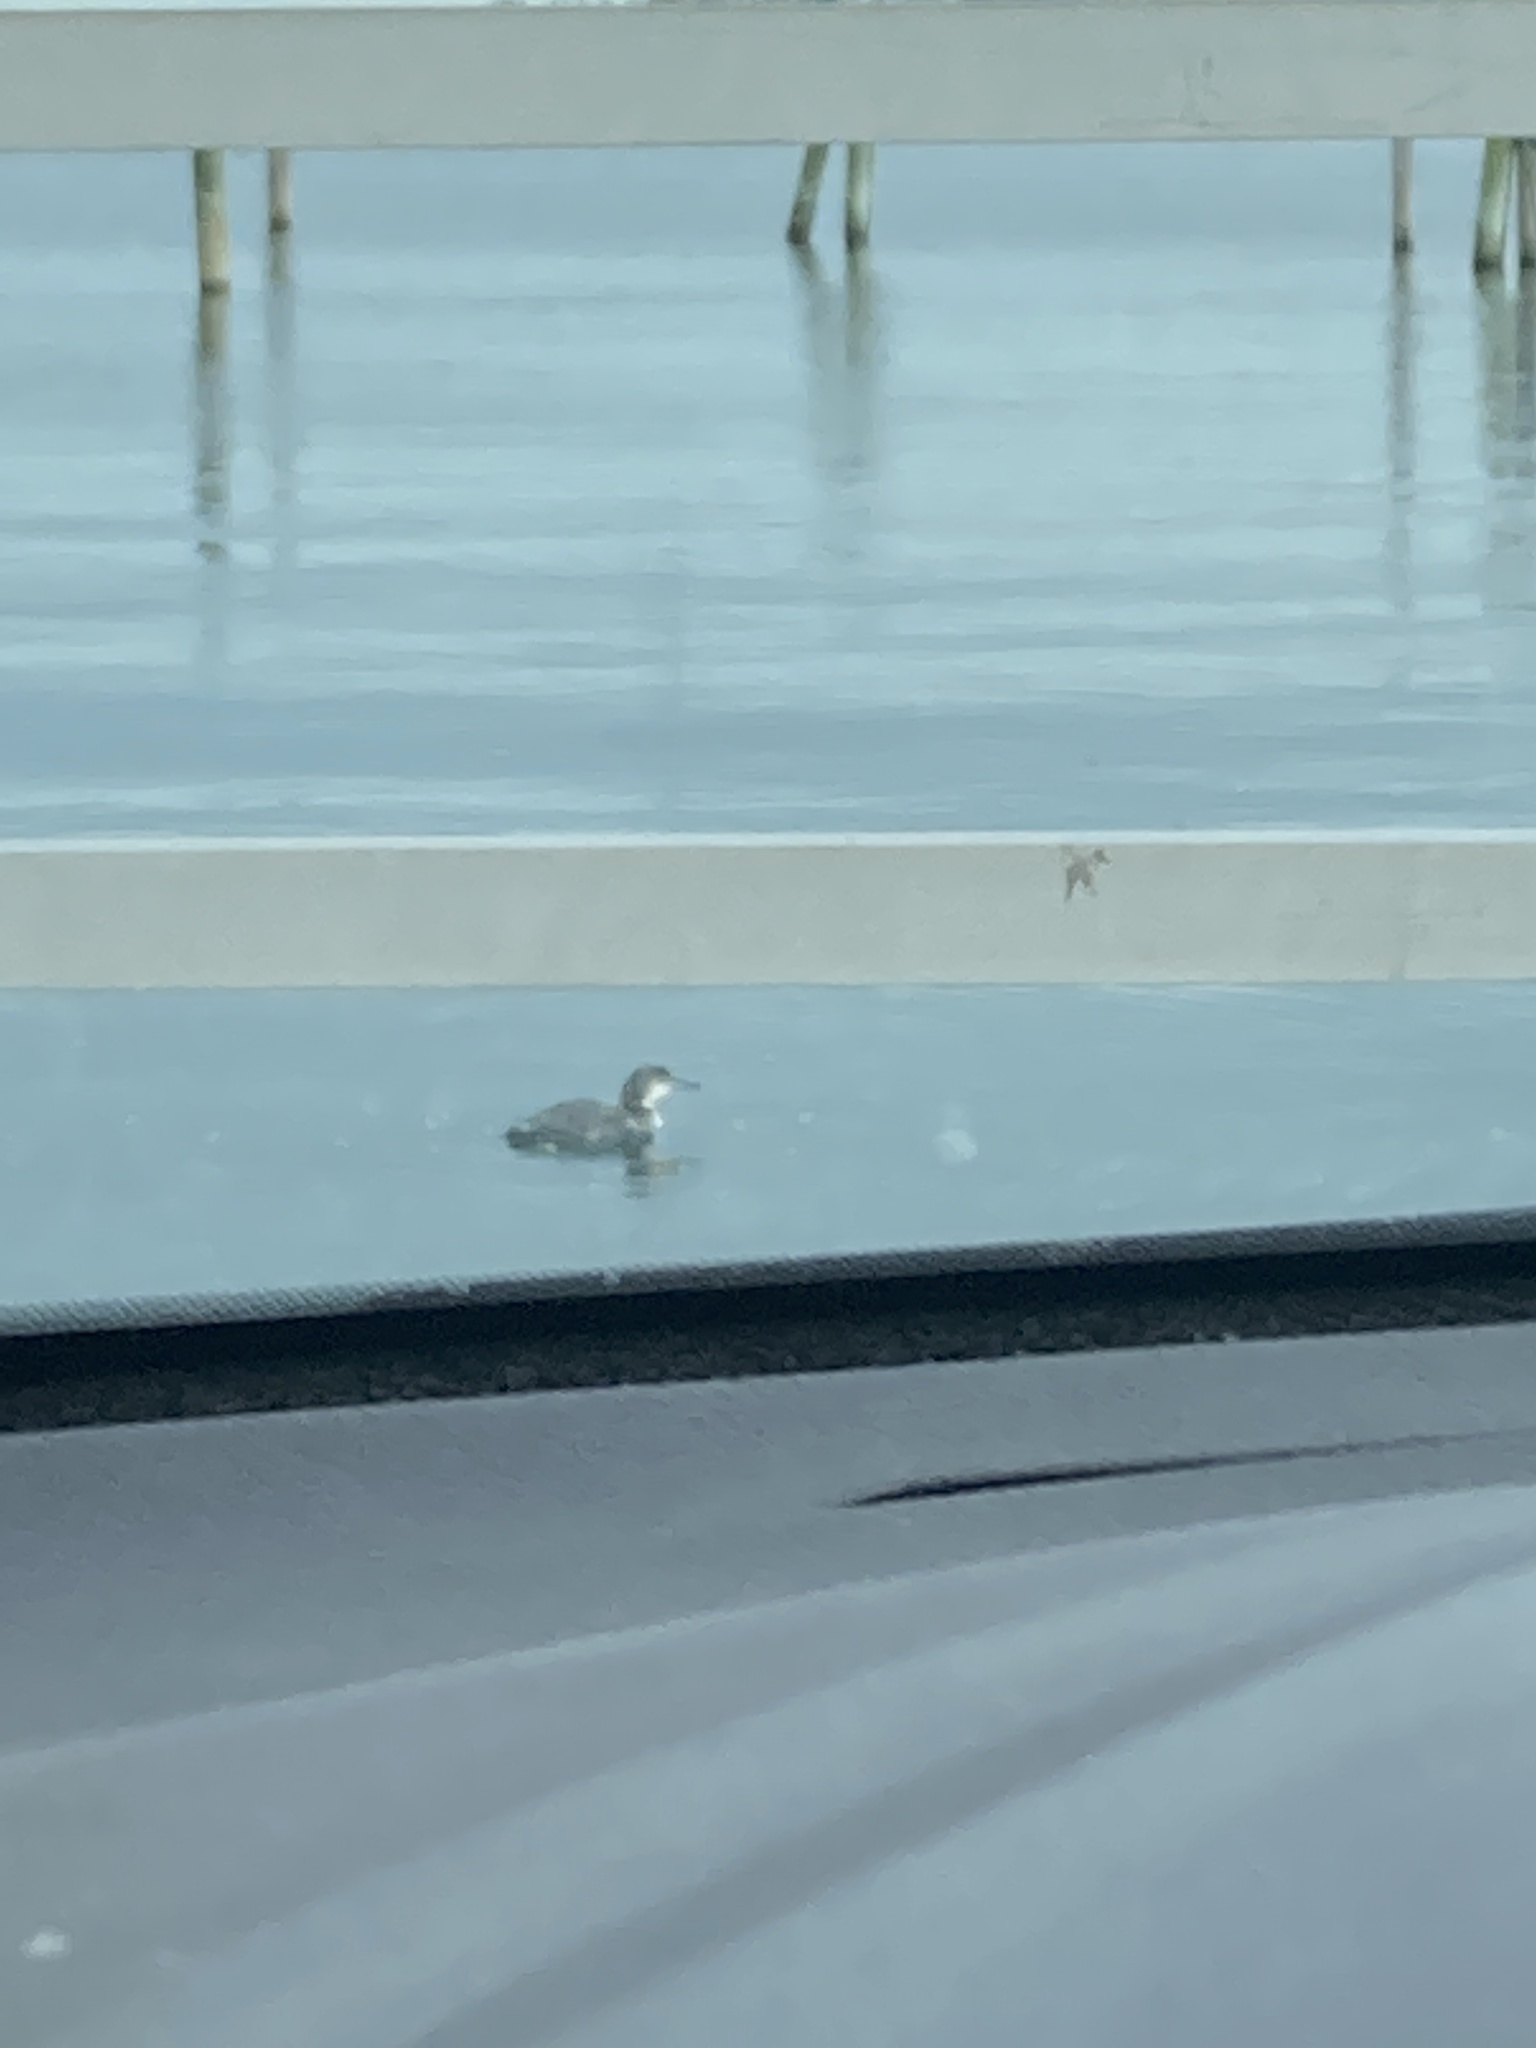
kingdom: Animalia
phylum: Chordata
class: Aves
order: Gaviiformes
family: Gaviidae
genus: Gavia
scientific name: Gavia immer
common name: Common loon
